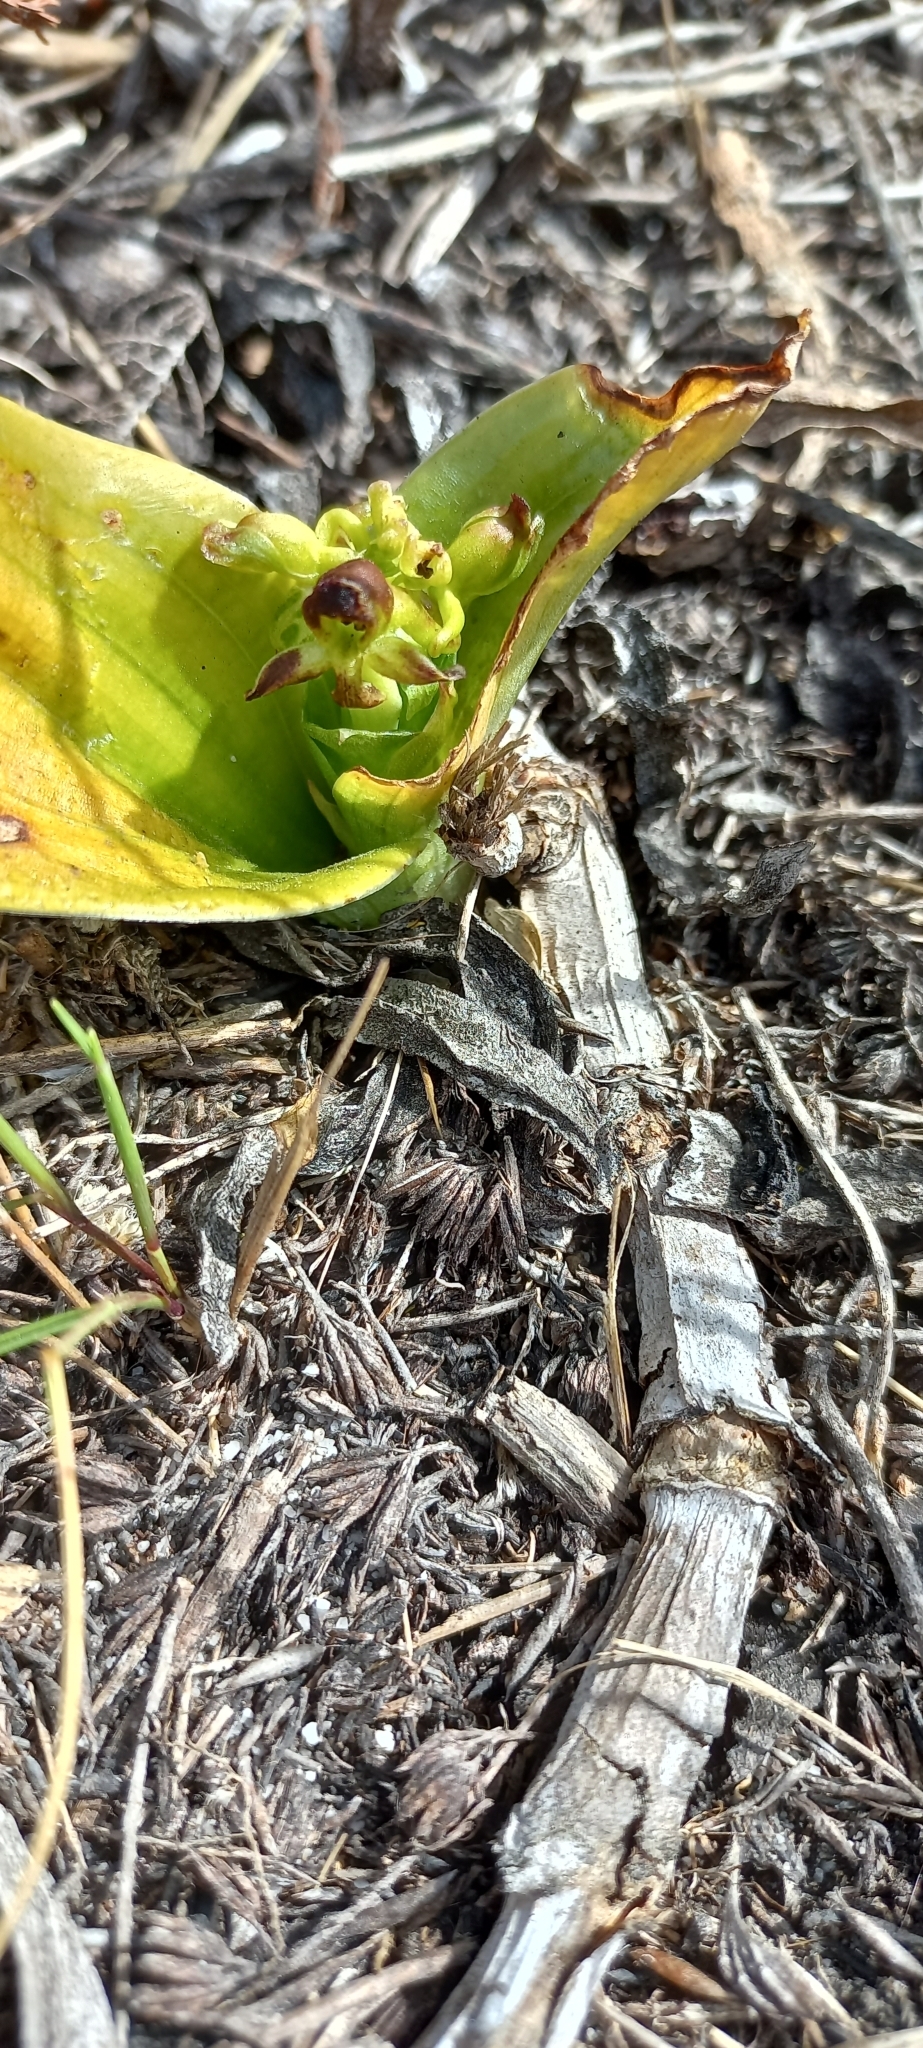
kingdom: Plantae
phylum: Tracheophyta
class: Liliopsida
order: Asparagales
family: Orchidaceae
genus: Satyrium
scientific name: Satyrium odorum
